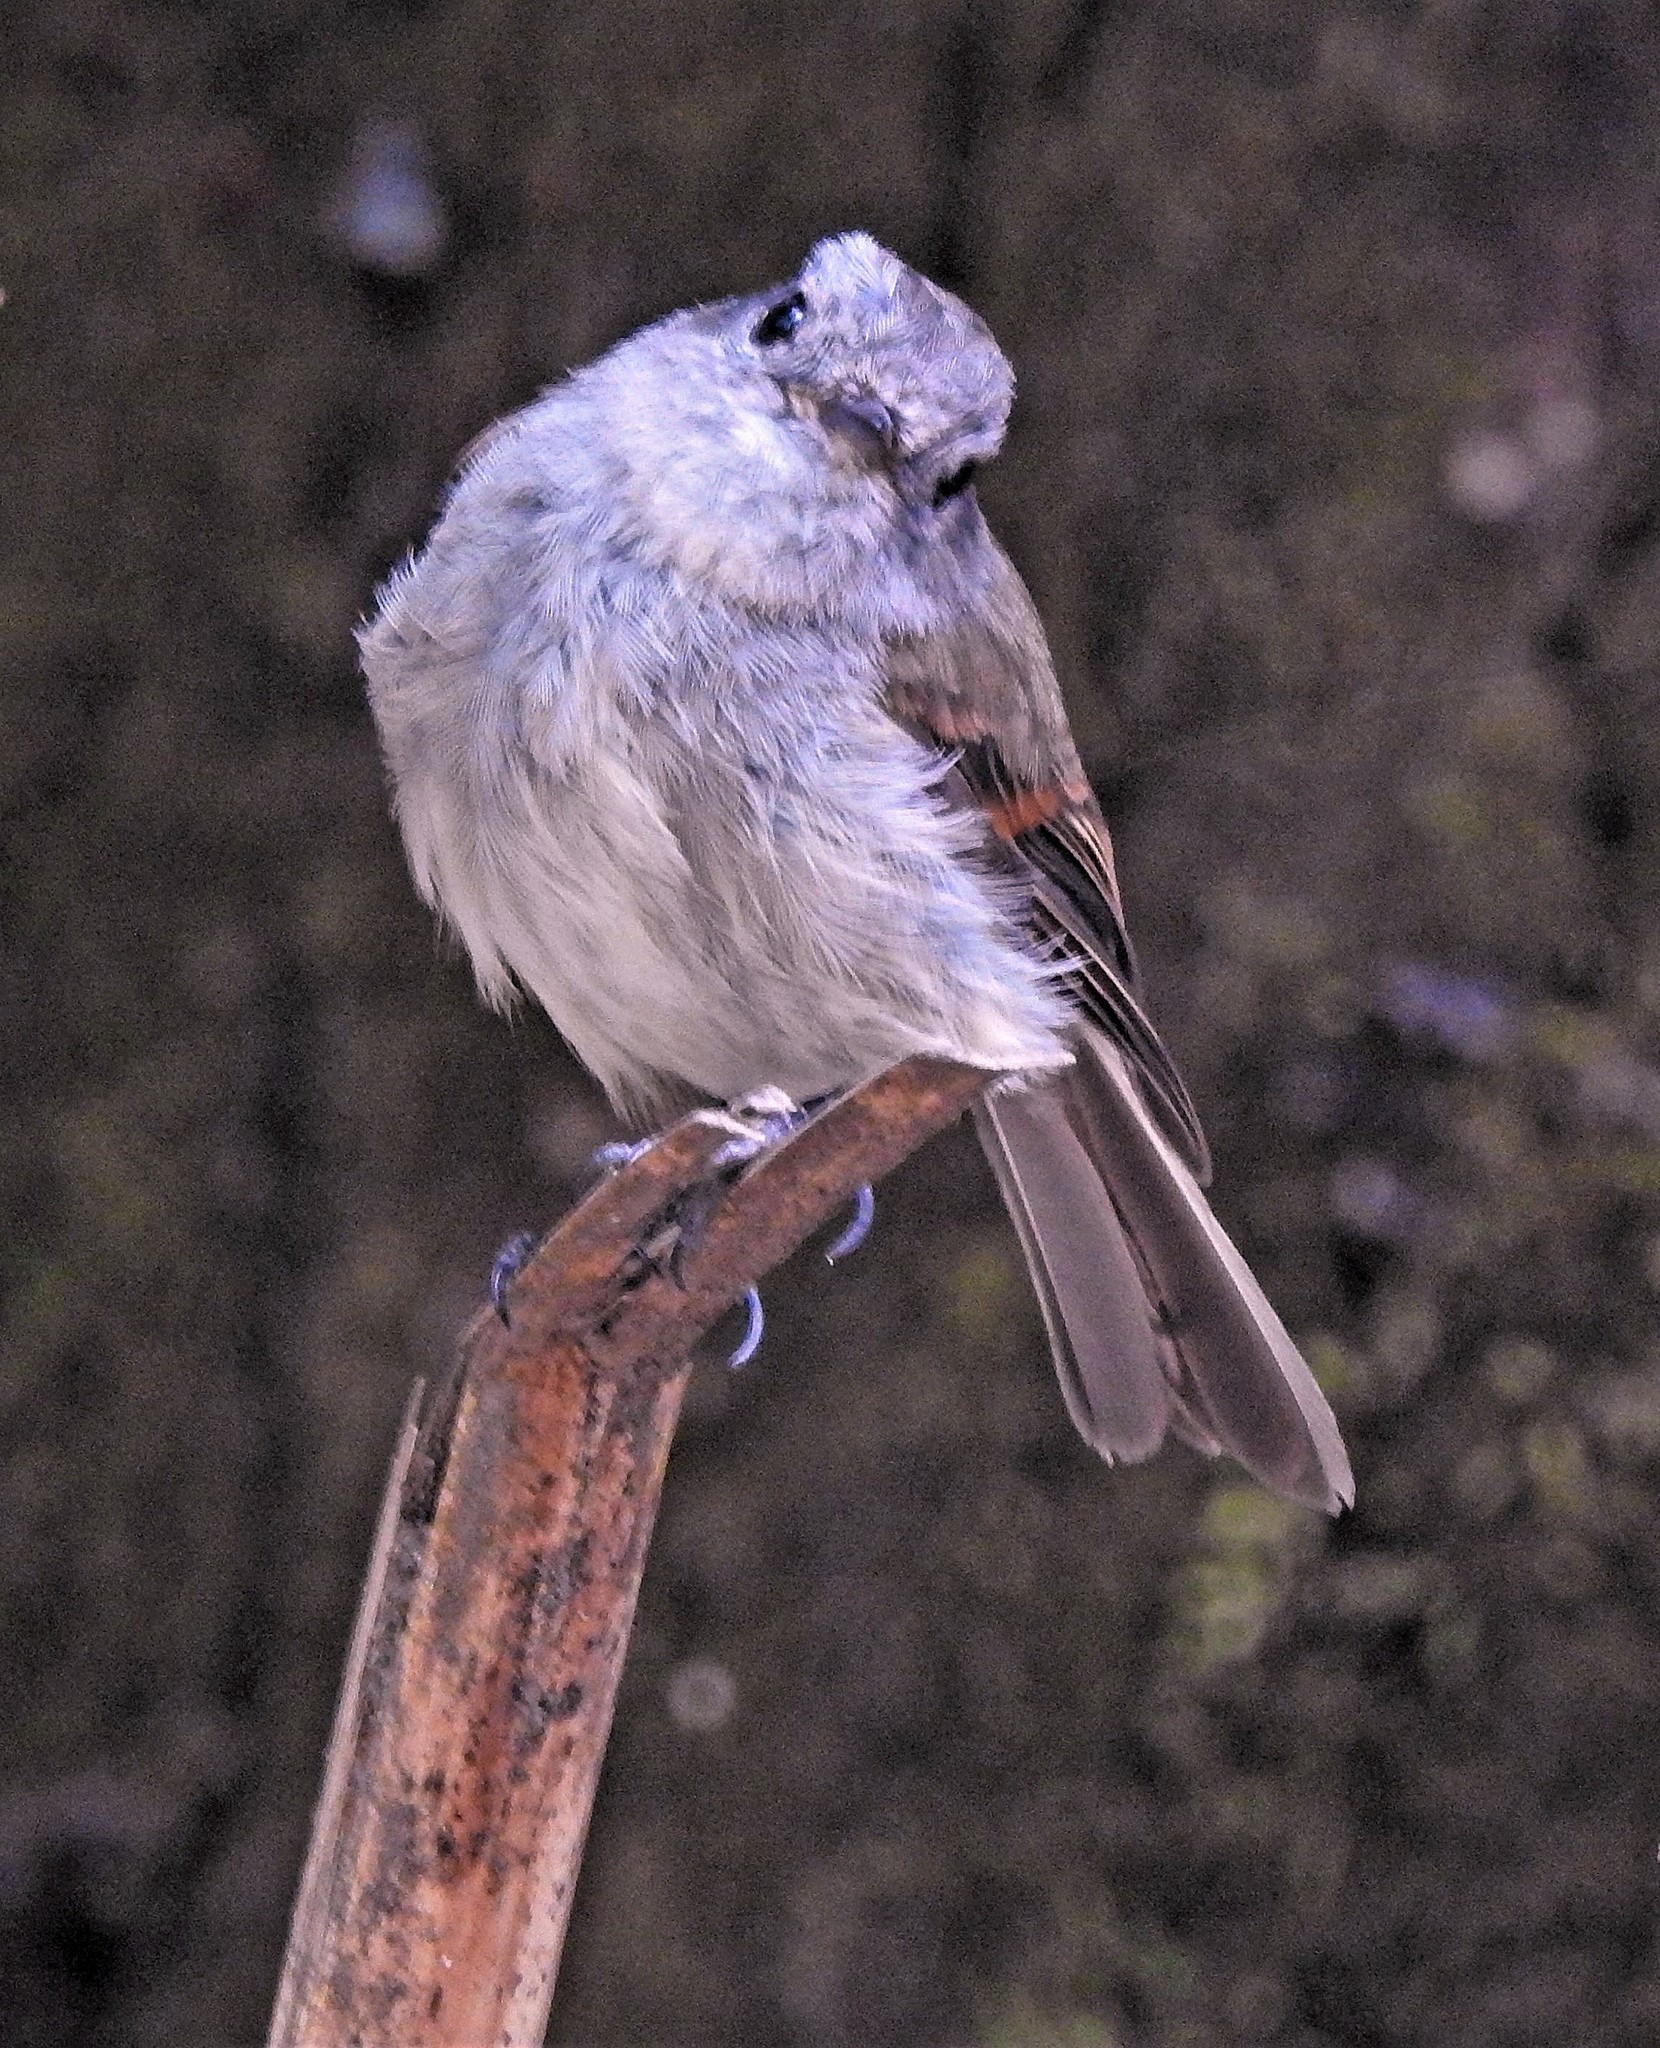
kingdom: Animalia
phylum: Chordata
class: Aves
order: Passeriformes
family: Tyrannidae
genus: Colorhamphus
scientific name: Colorhamphus parvirostris
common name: Patagonian tyrant
